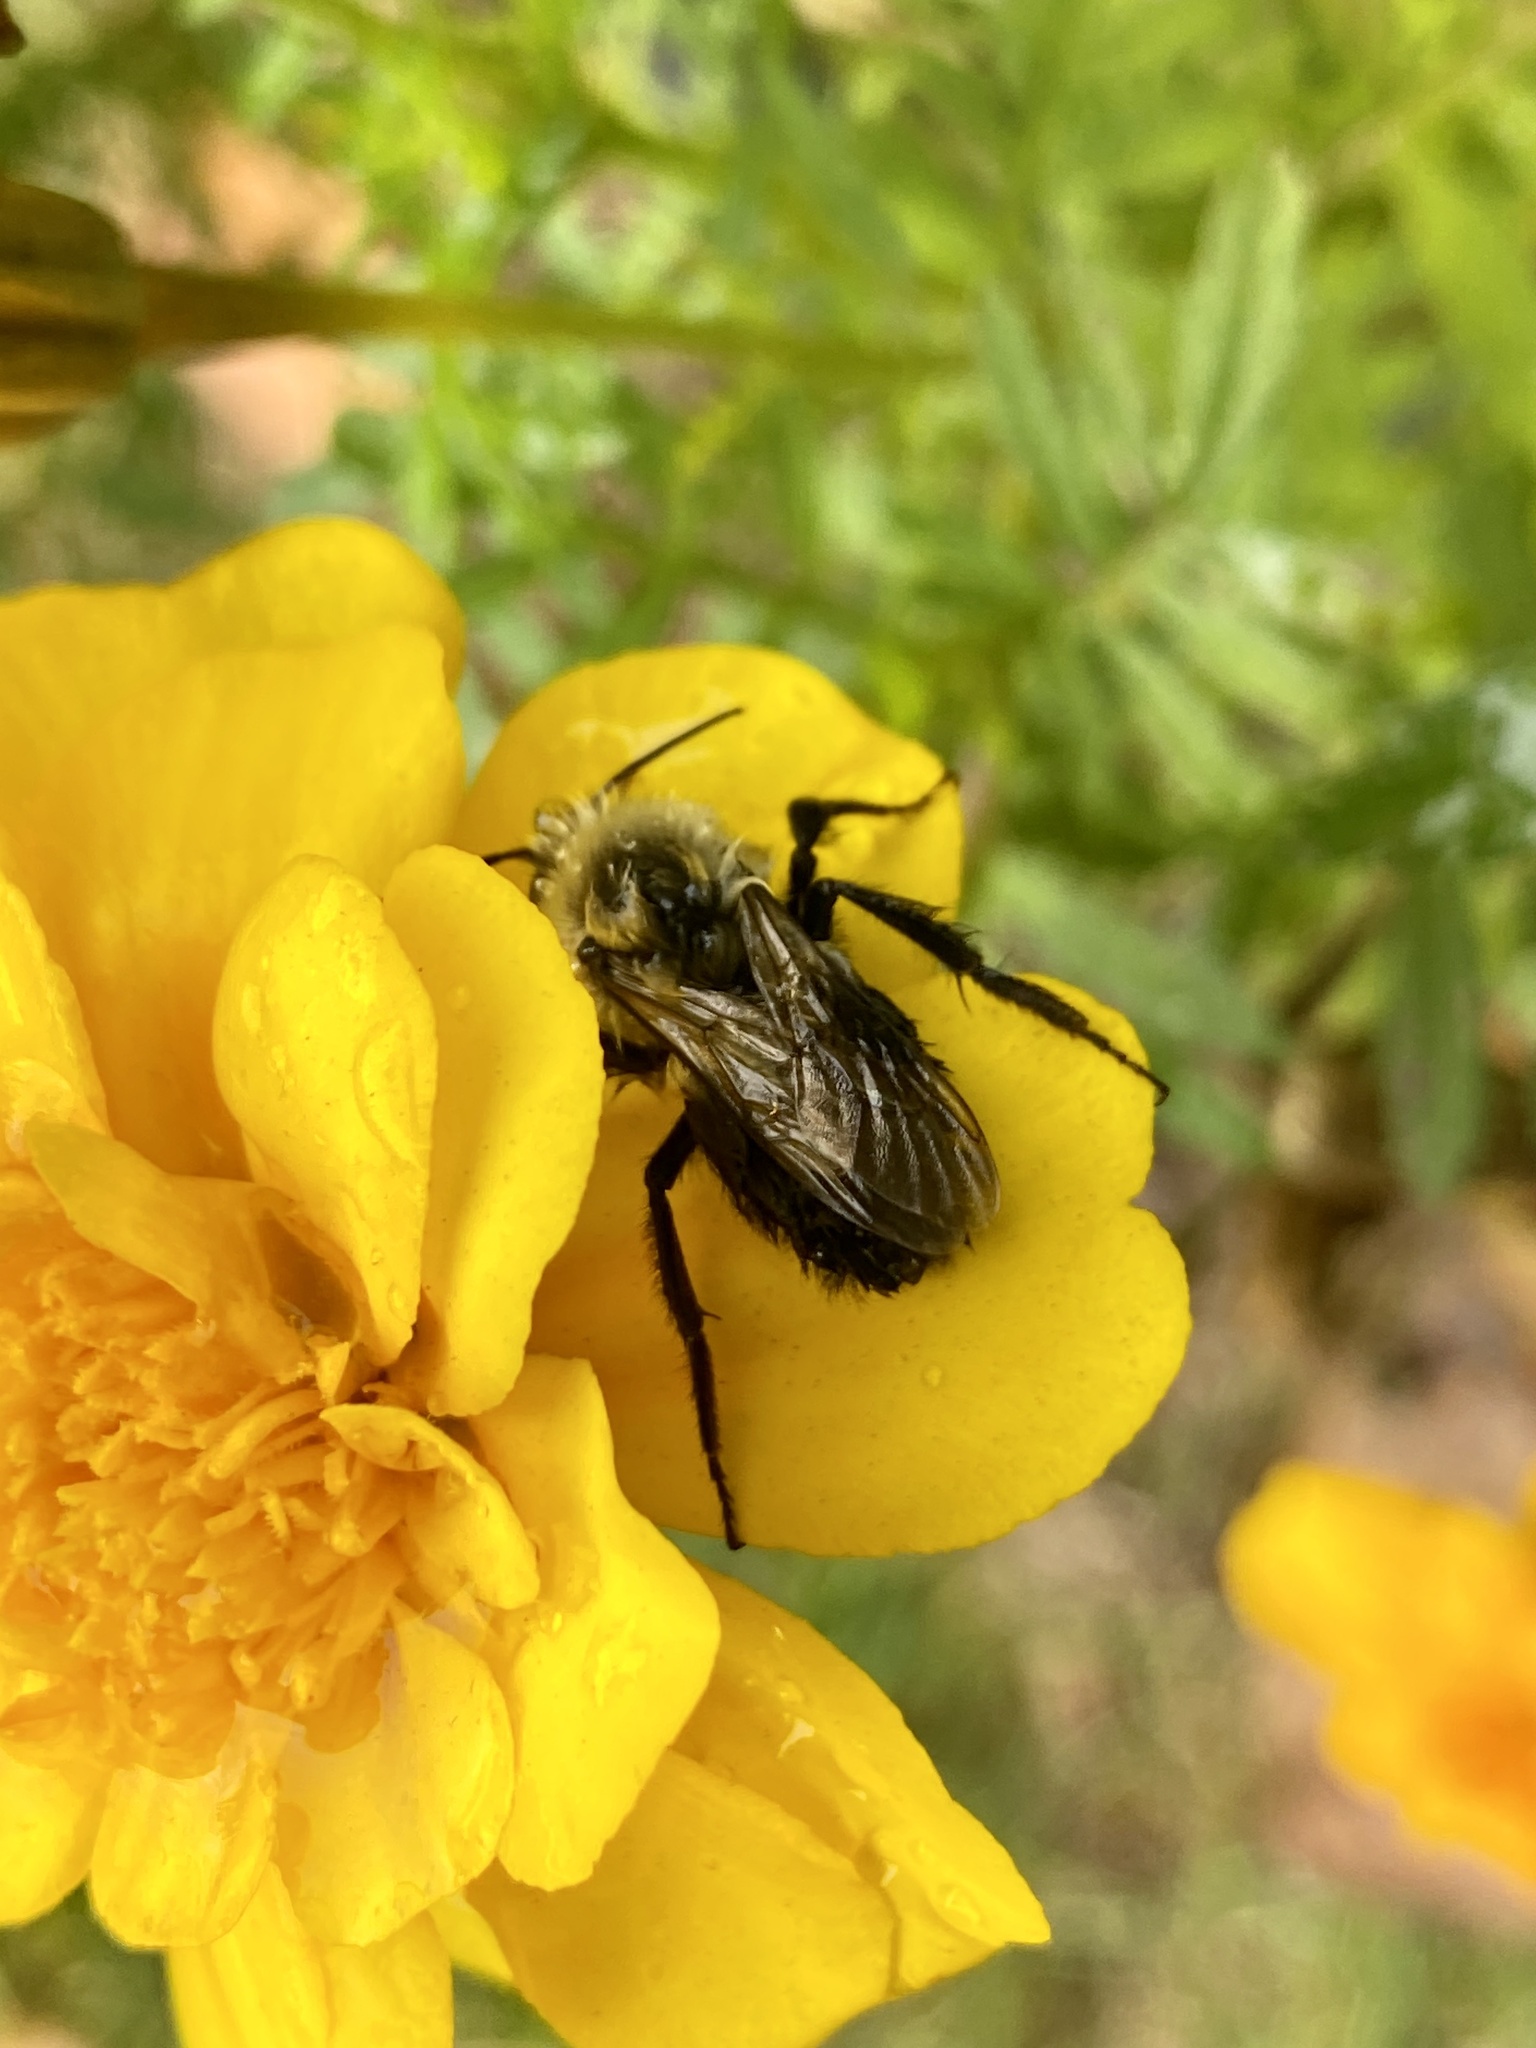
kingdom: Animalia
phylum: Arthropoda
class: Insecta
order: Hymenoptera
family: Apidae
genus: Bombus
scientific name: Bombus impatiens
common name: Common eastern bumble bee
